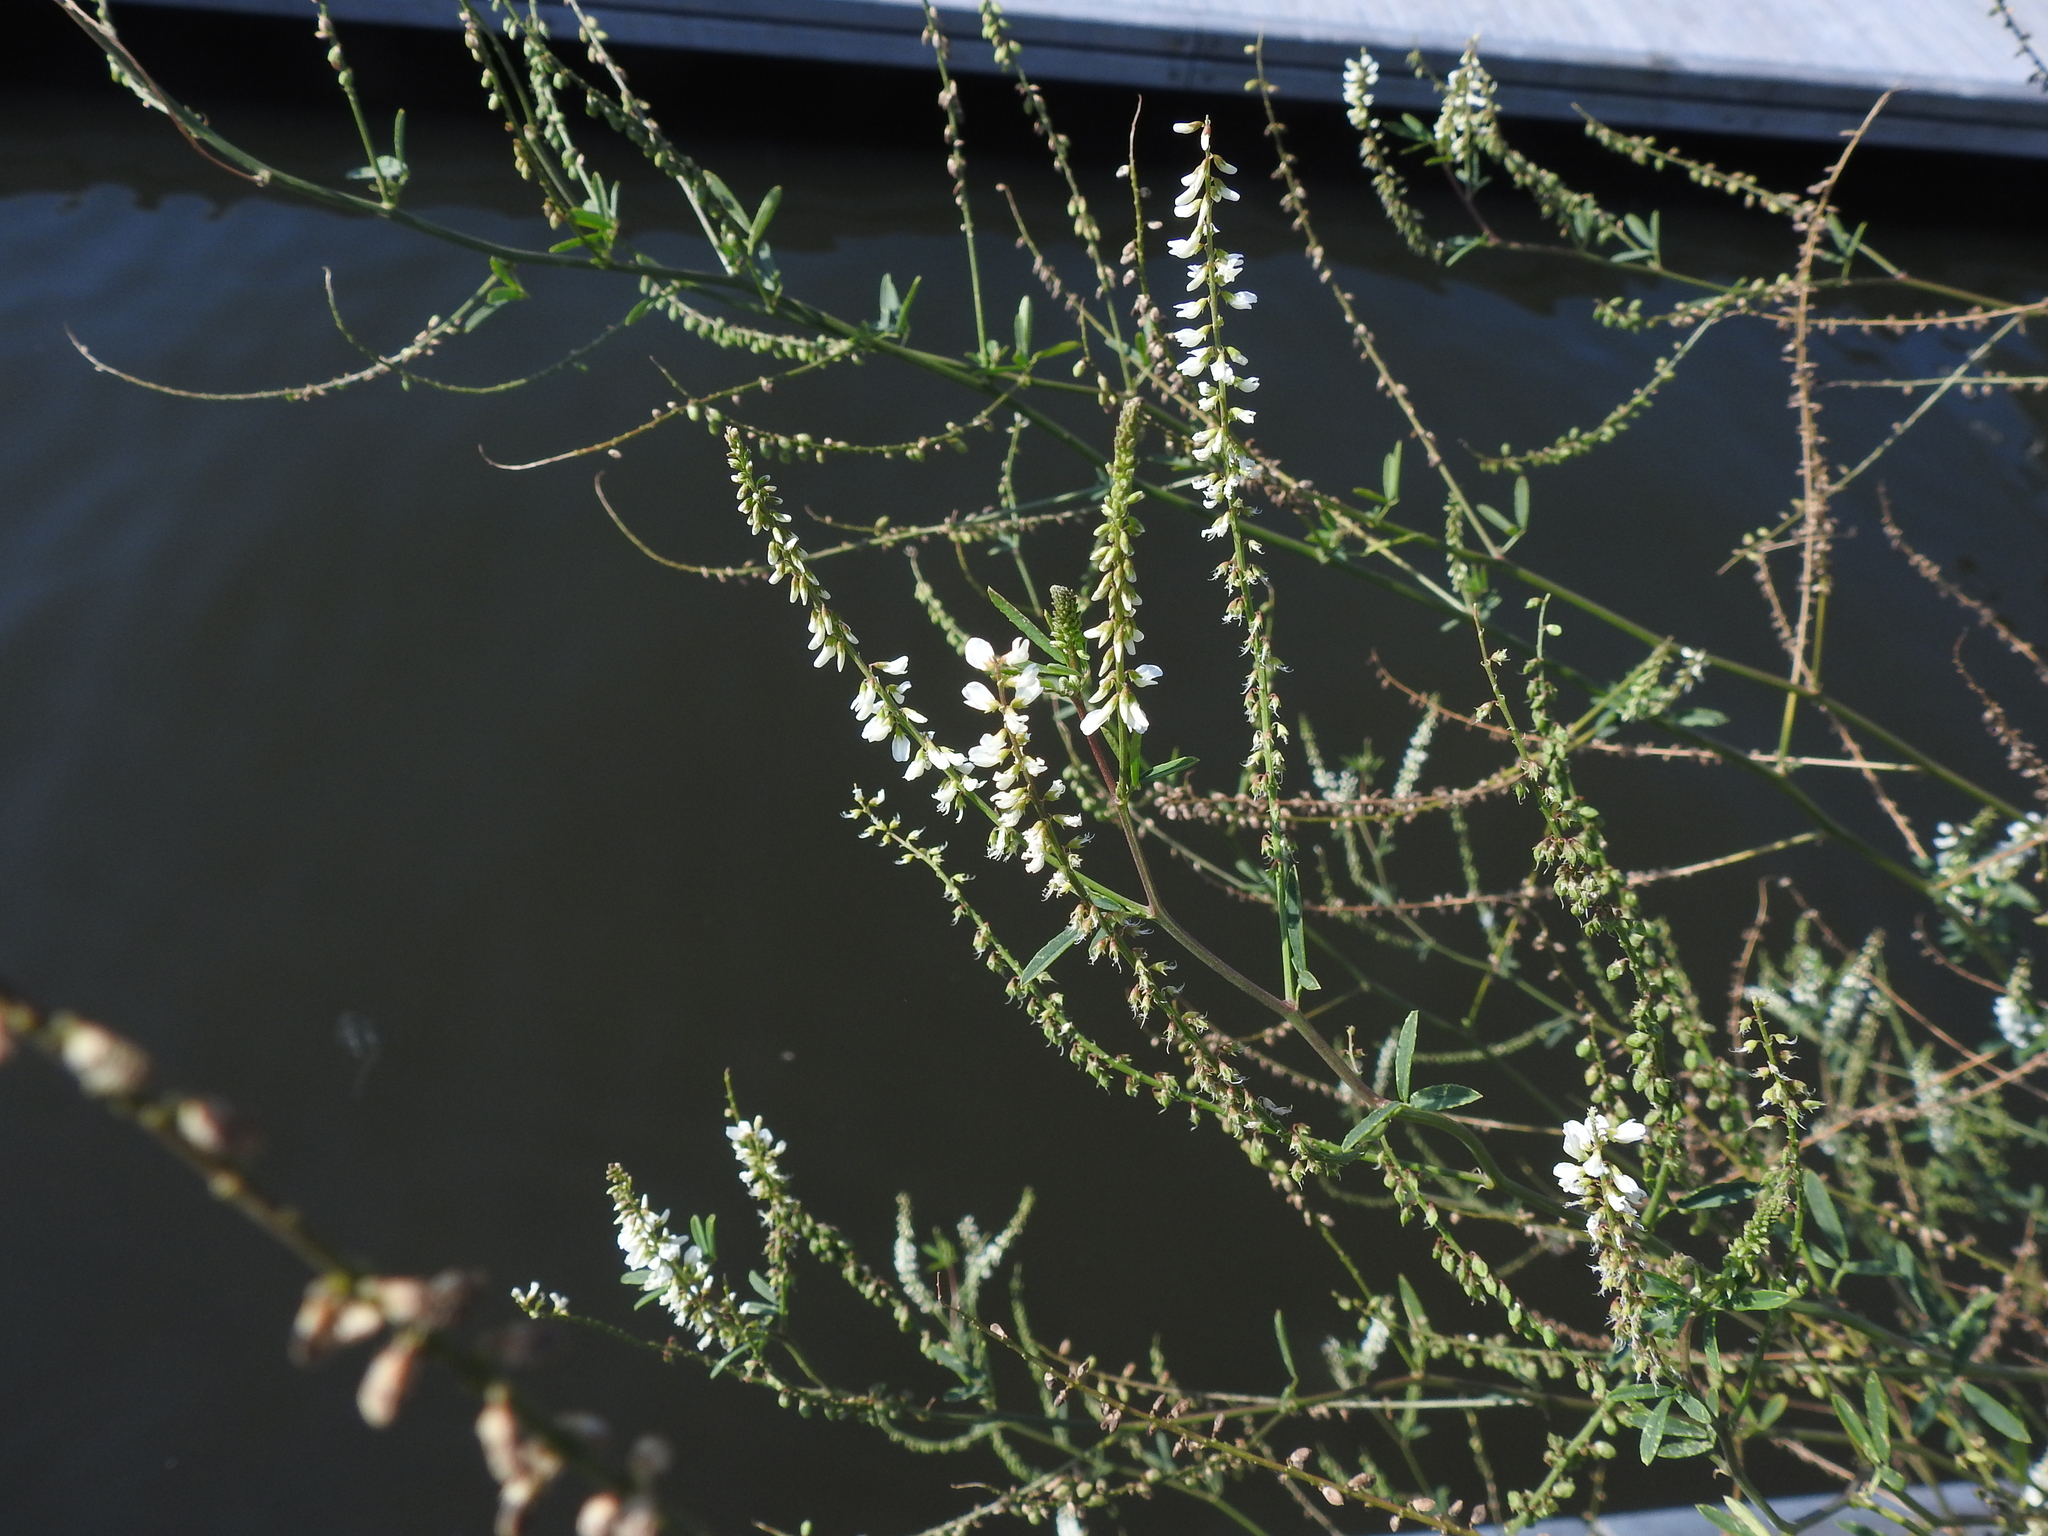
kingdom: Plantae
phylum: Tracheophyta
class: Magnoliopsida
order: Fabales
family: Fabaceae
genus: Melilotus
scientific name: Melilotus albus
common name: White melilot
